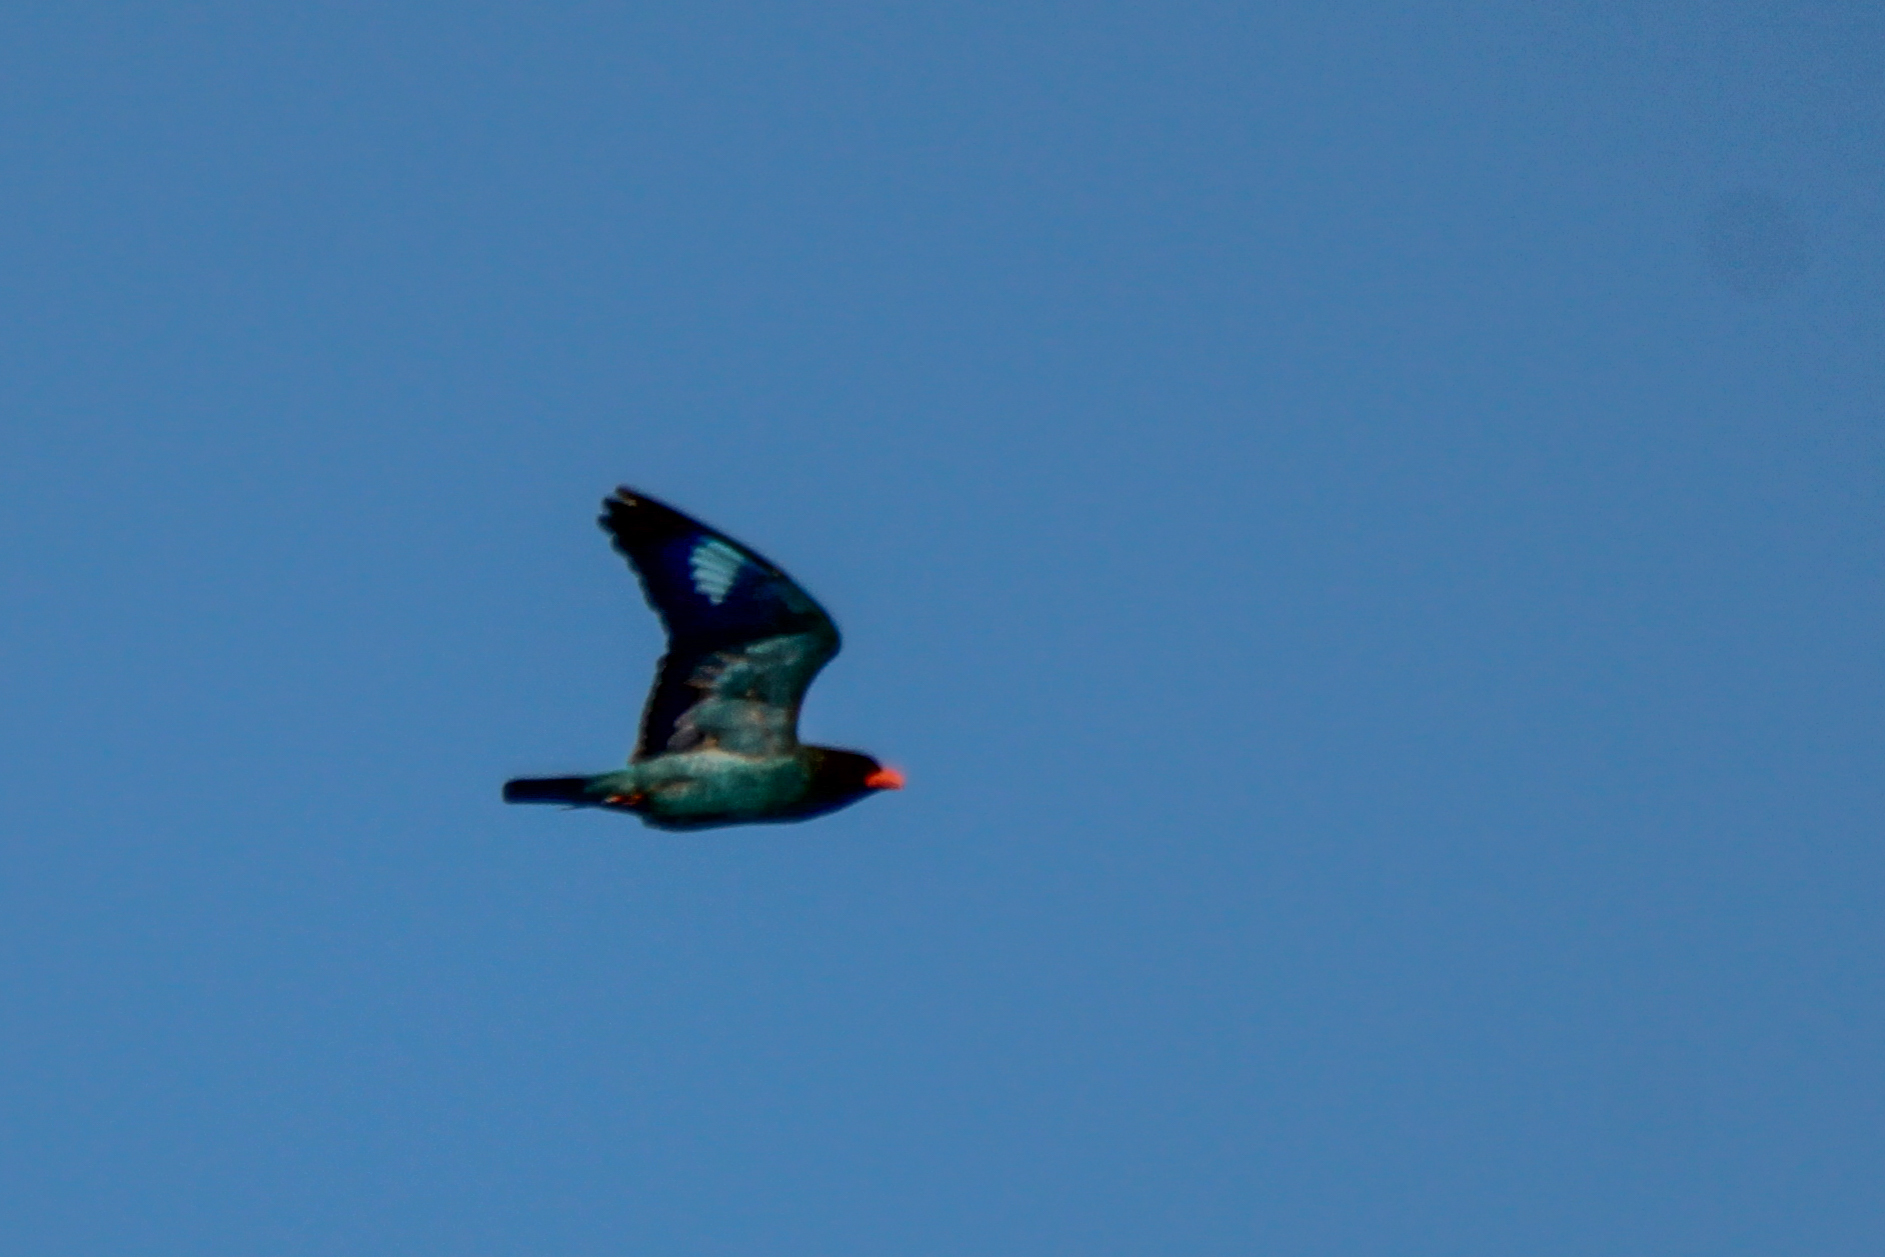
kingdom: Animalia
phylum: Chordata
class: Aves
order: Coraciiformes
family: Coraciidae
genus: Eurystomus
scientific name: Eurystomus orientalis
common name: Oriental dollarbird
